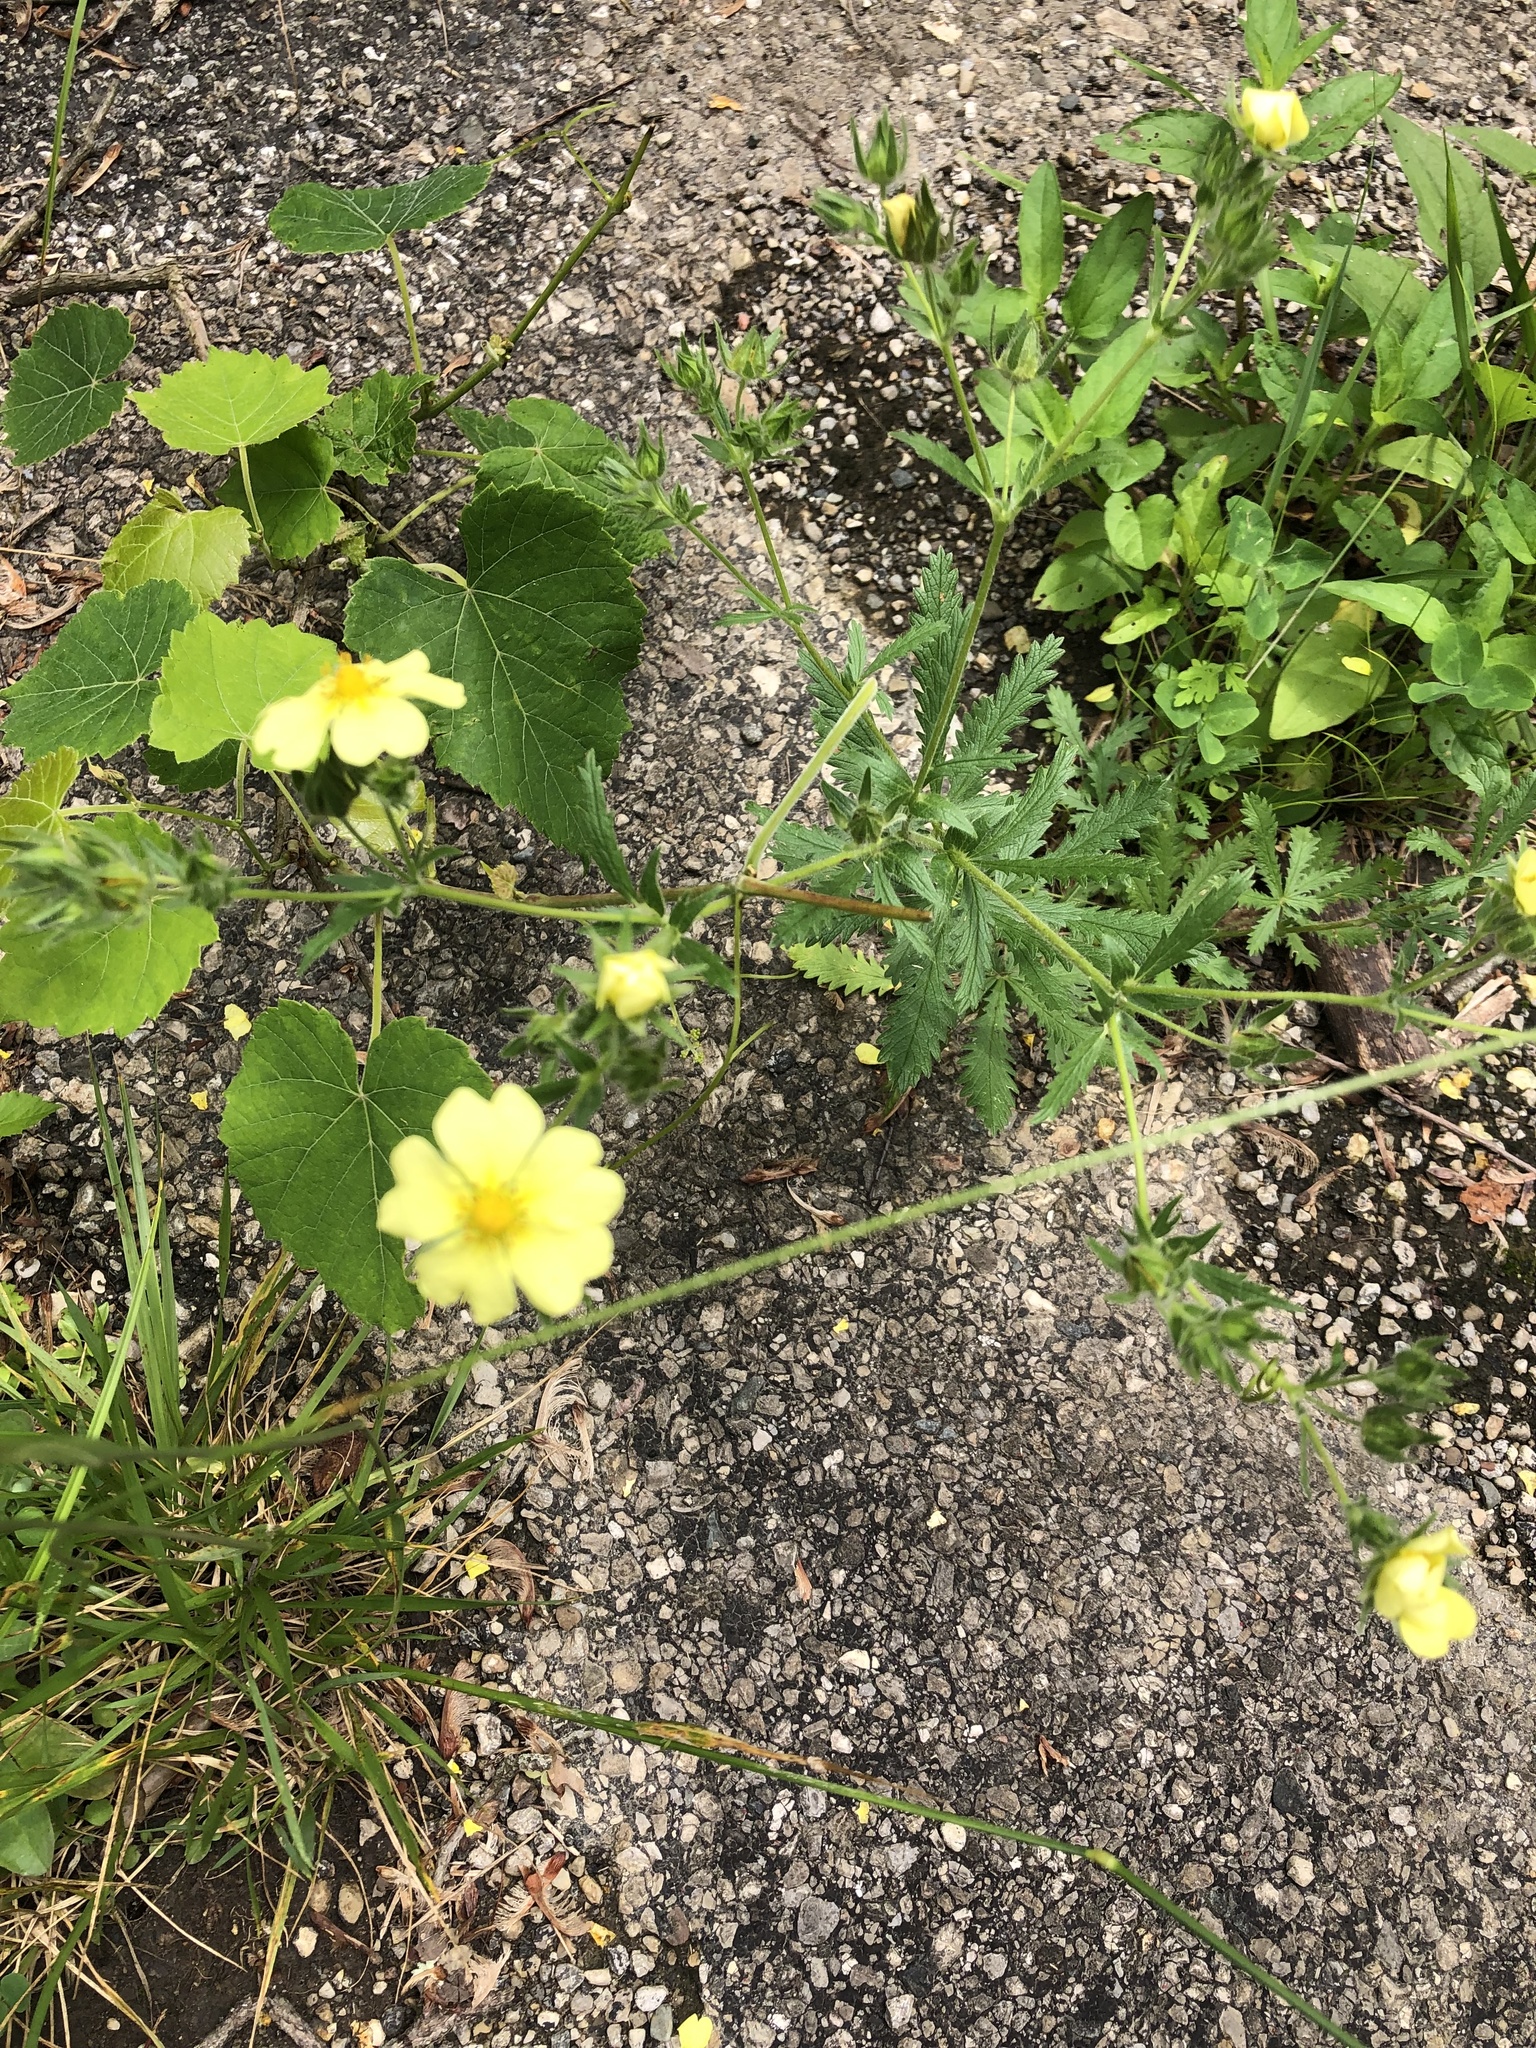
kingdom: Plantae
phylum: Tracheophyta
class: Magnoliopsida
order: Rosales
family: Rosaceae
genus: Potentilla
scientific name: Potentilla recta
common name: Sulphur cinquefoil
